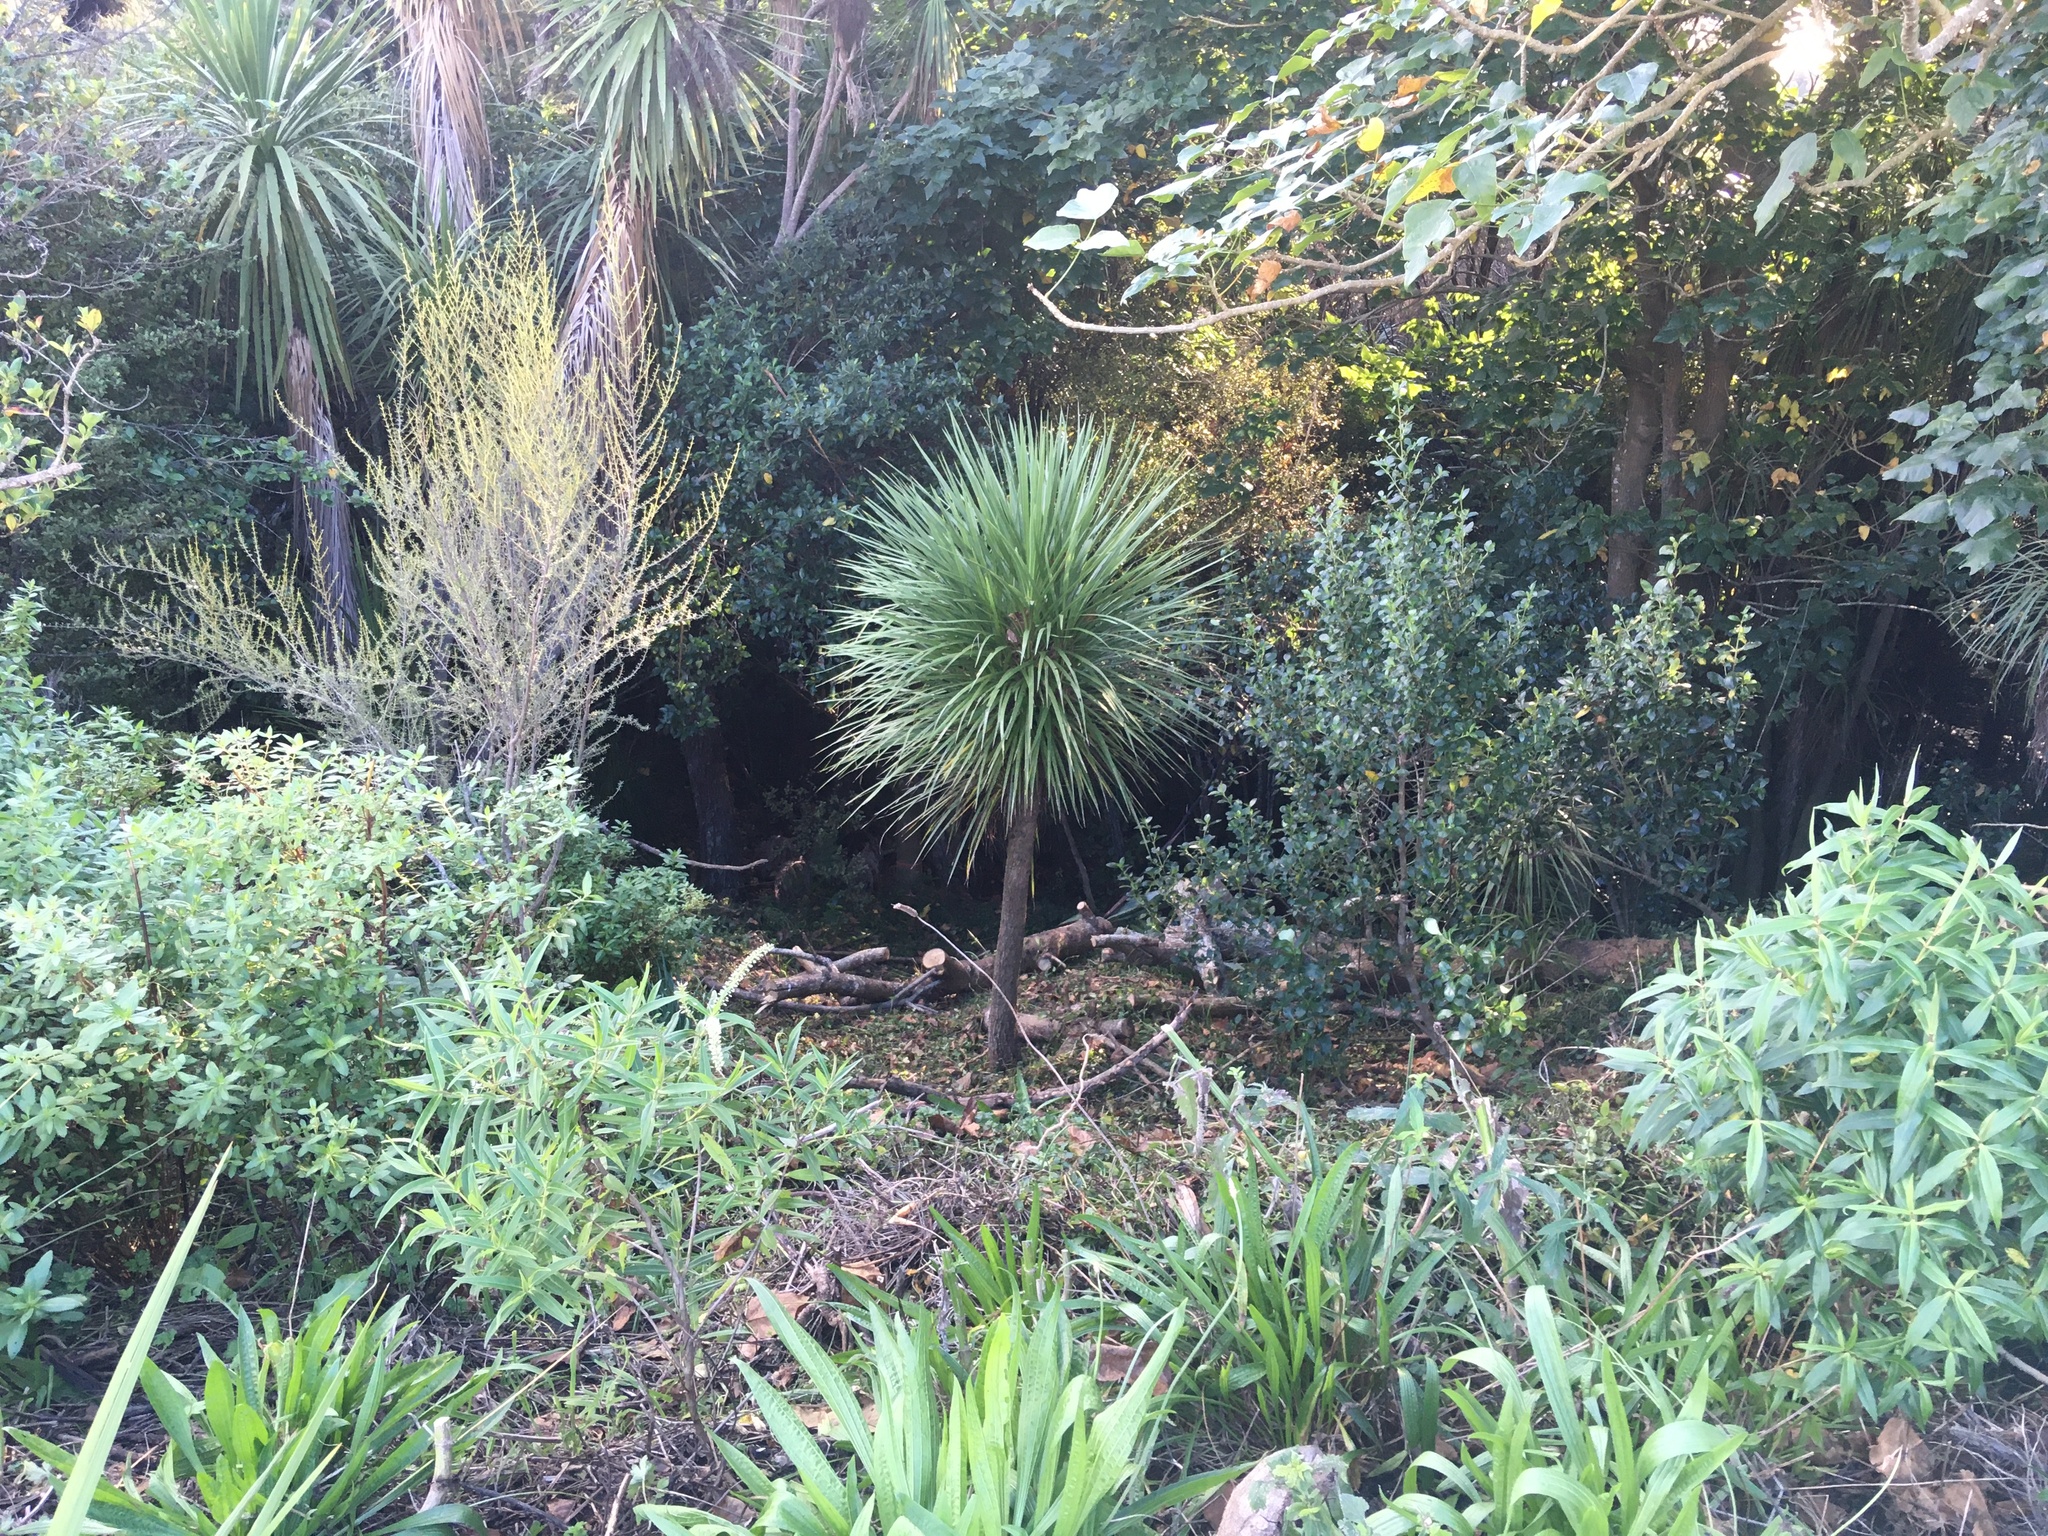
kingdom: Plantae
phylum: Tracheophyta
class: Magnoliopsida
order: Asterales
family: Asteraceae
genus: Olearia
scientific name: Olearia solandri
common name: Coastal daisybush
